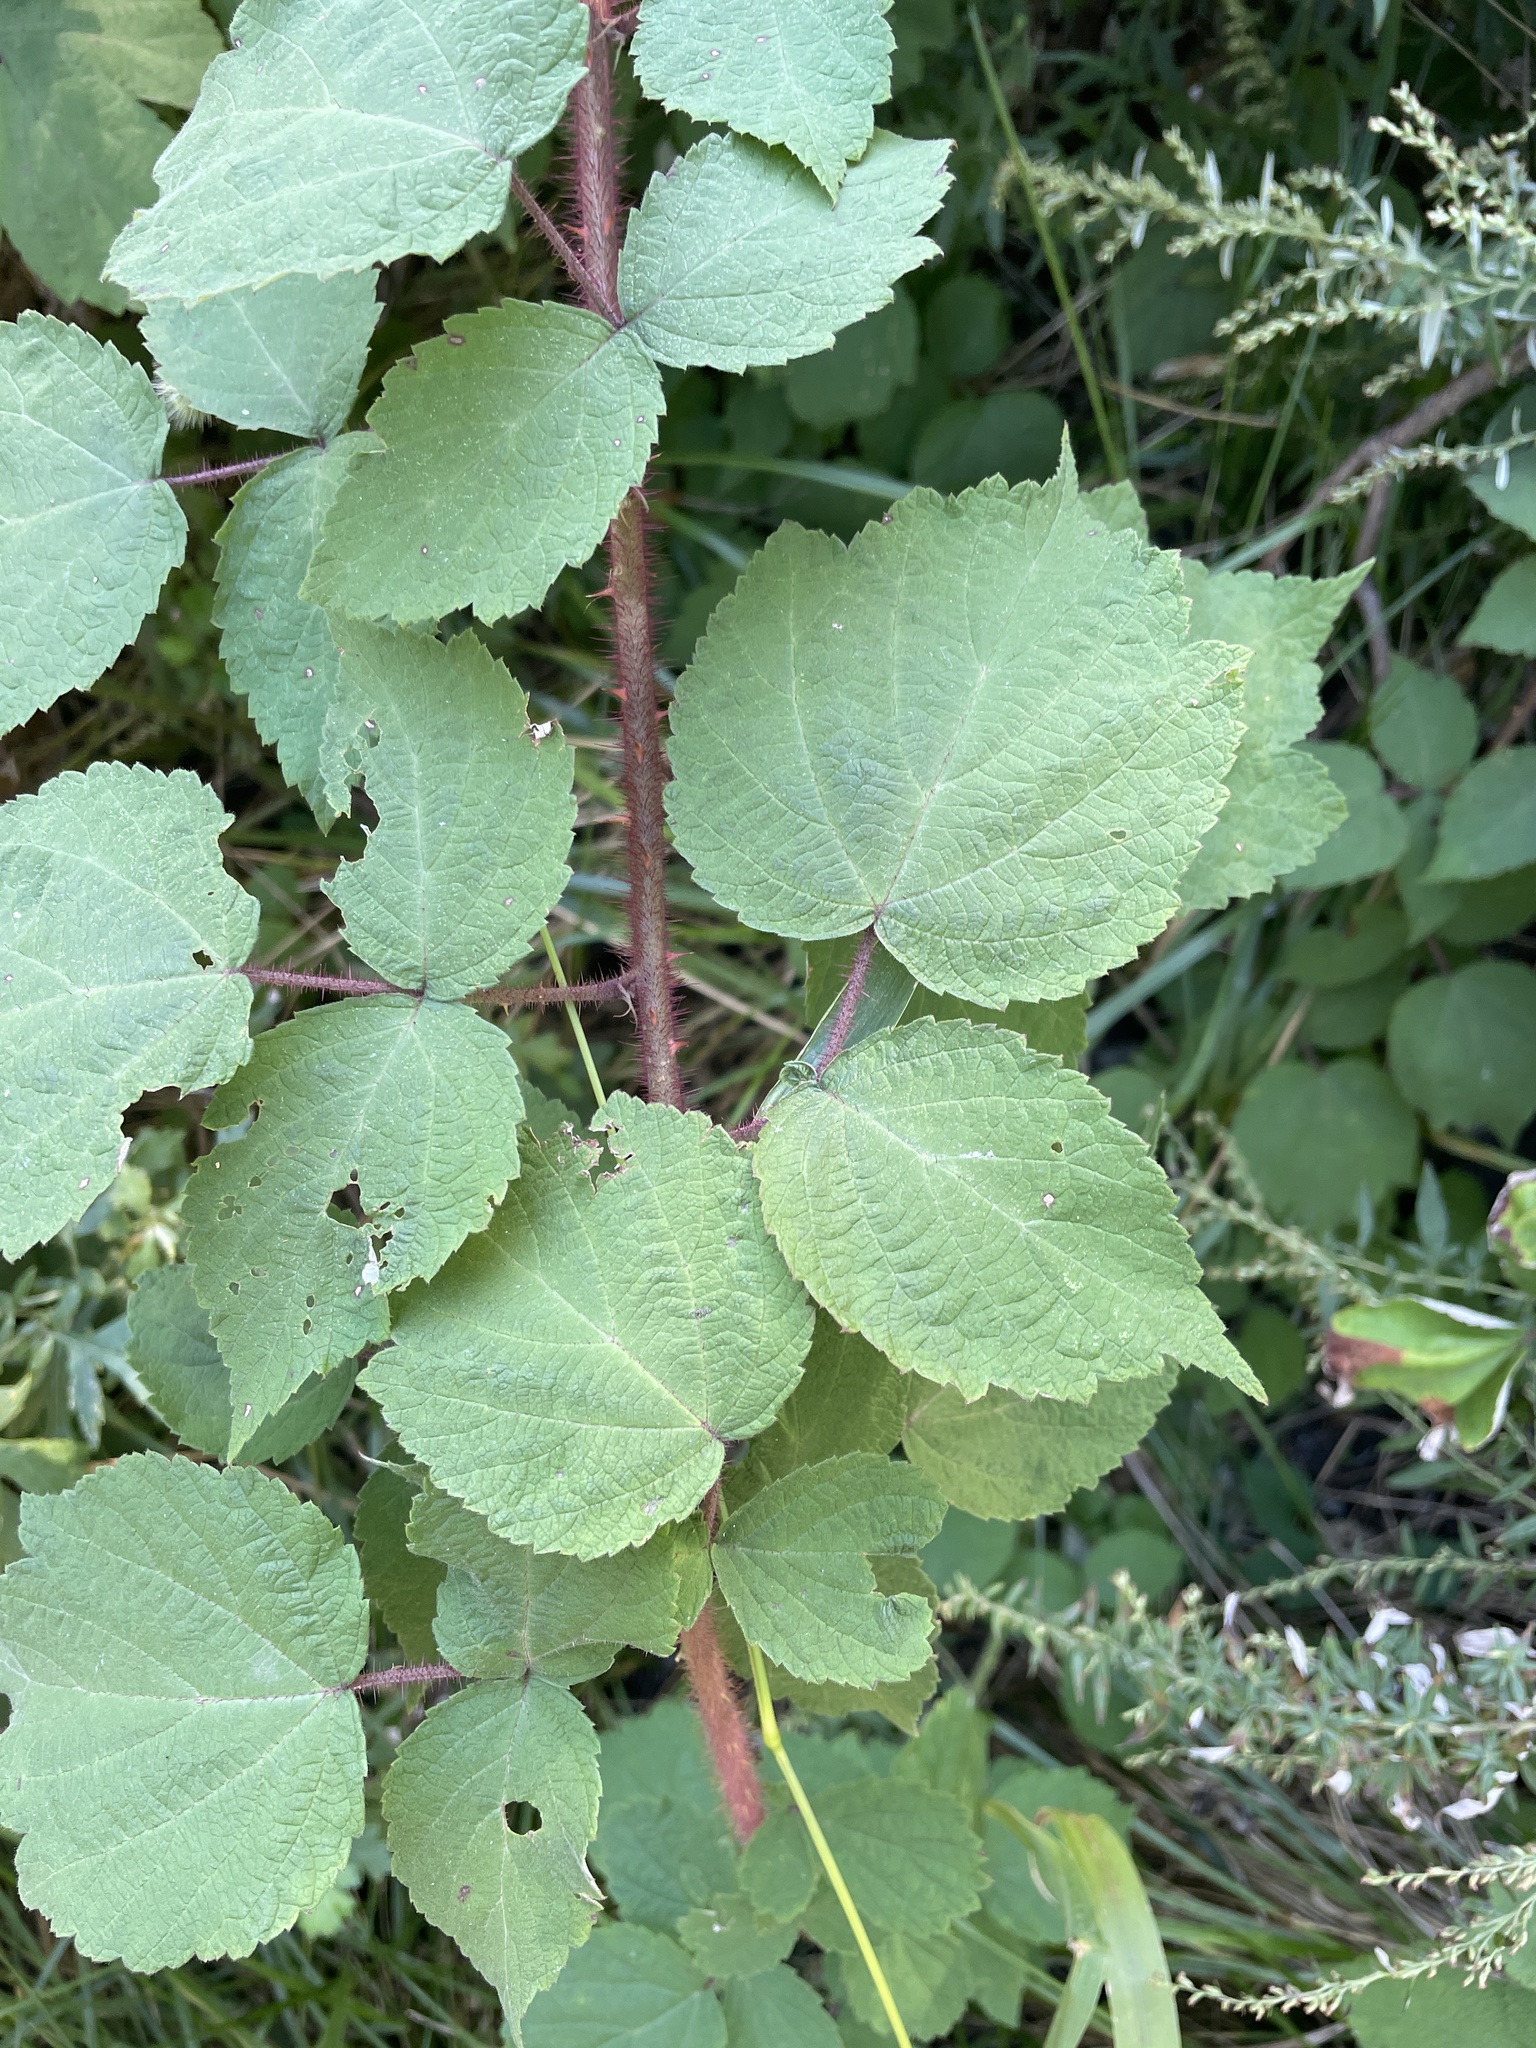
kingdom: Plantae
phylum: Tracheophyta
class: Magnoliopsida
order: Rosales
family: Rosaceae
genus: Rubus
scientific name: Rubus phoenicolasius
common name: Japanese wineberry
